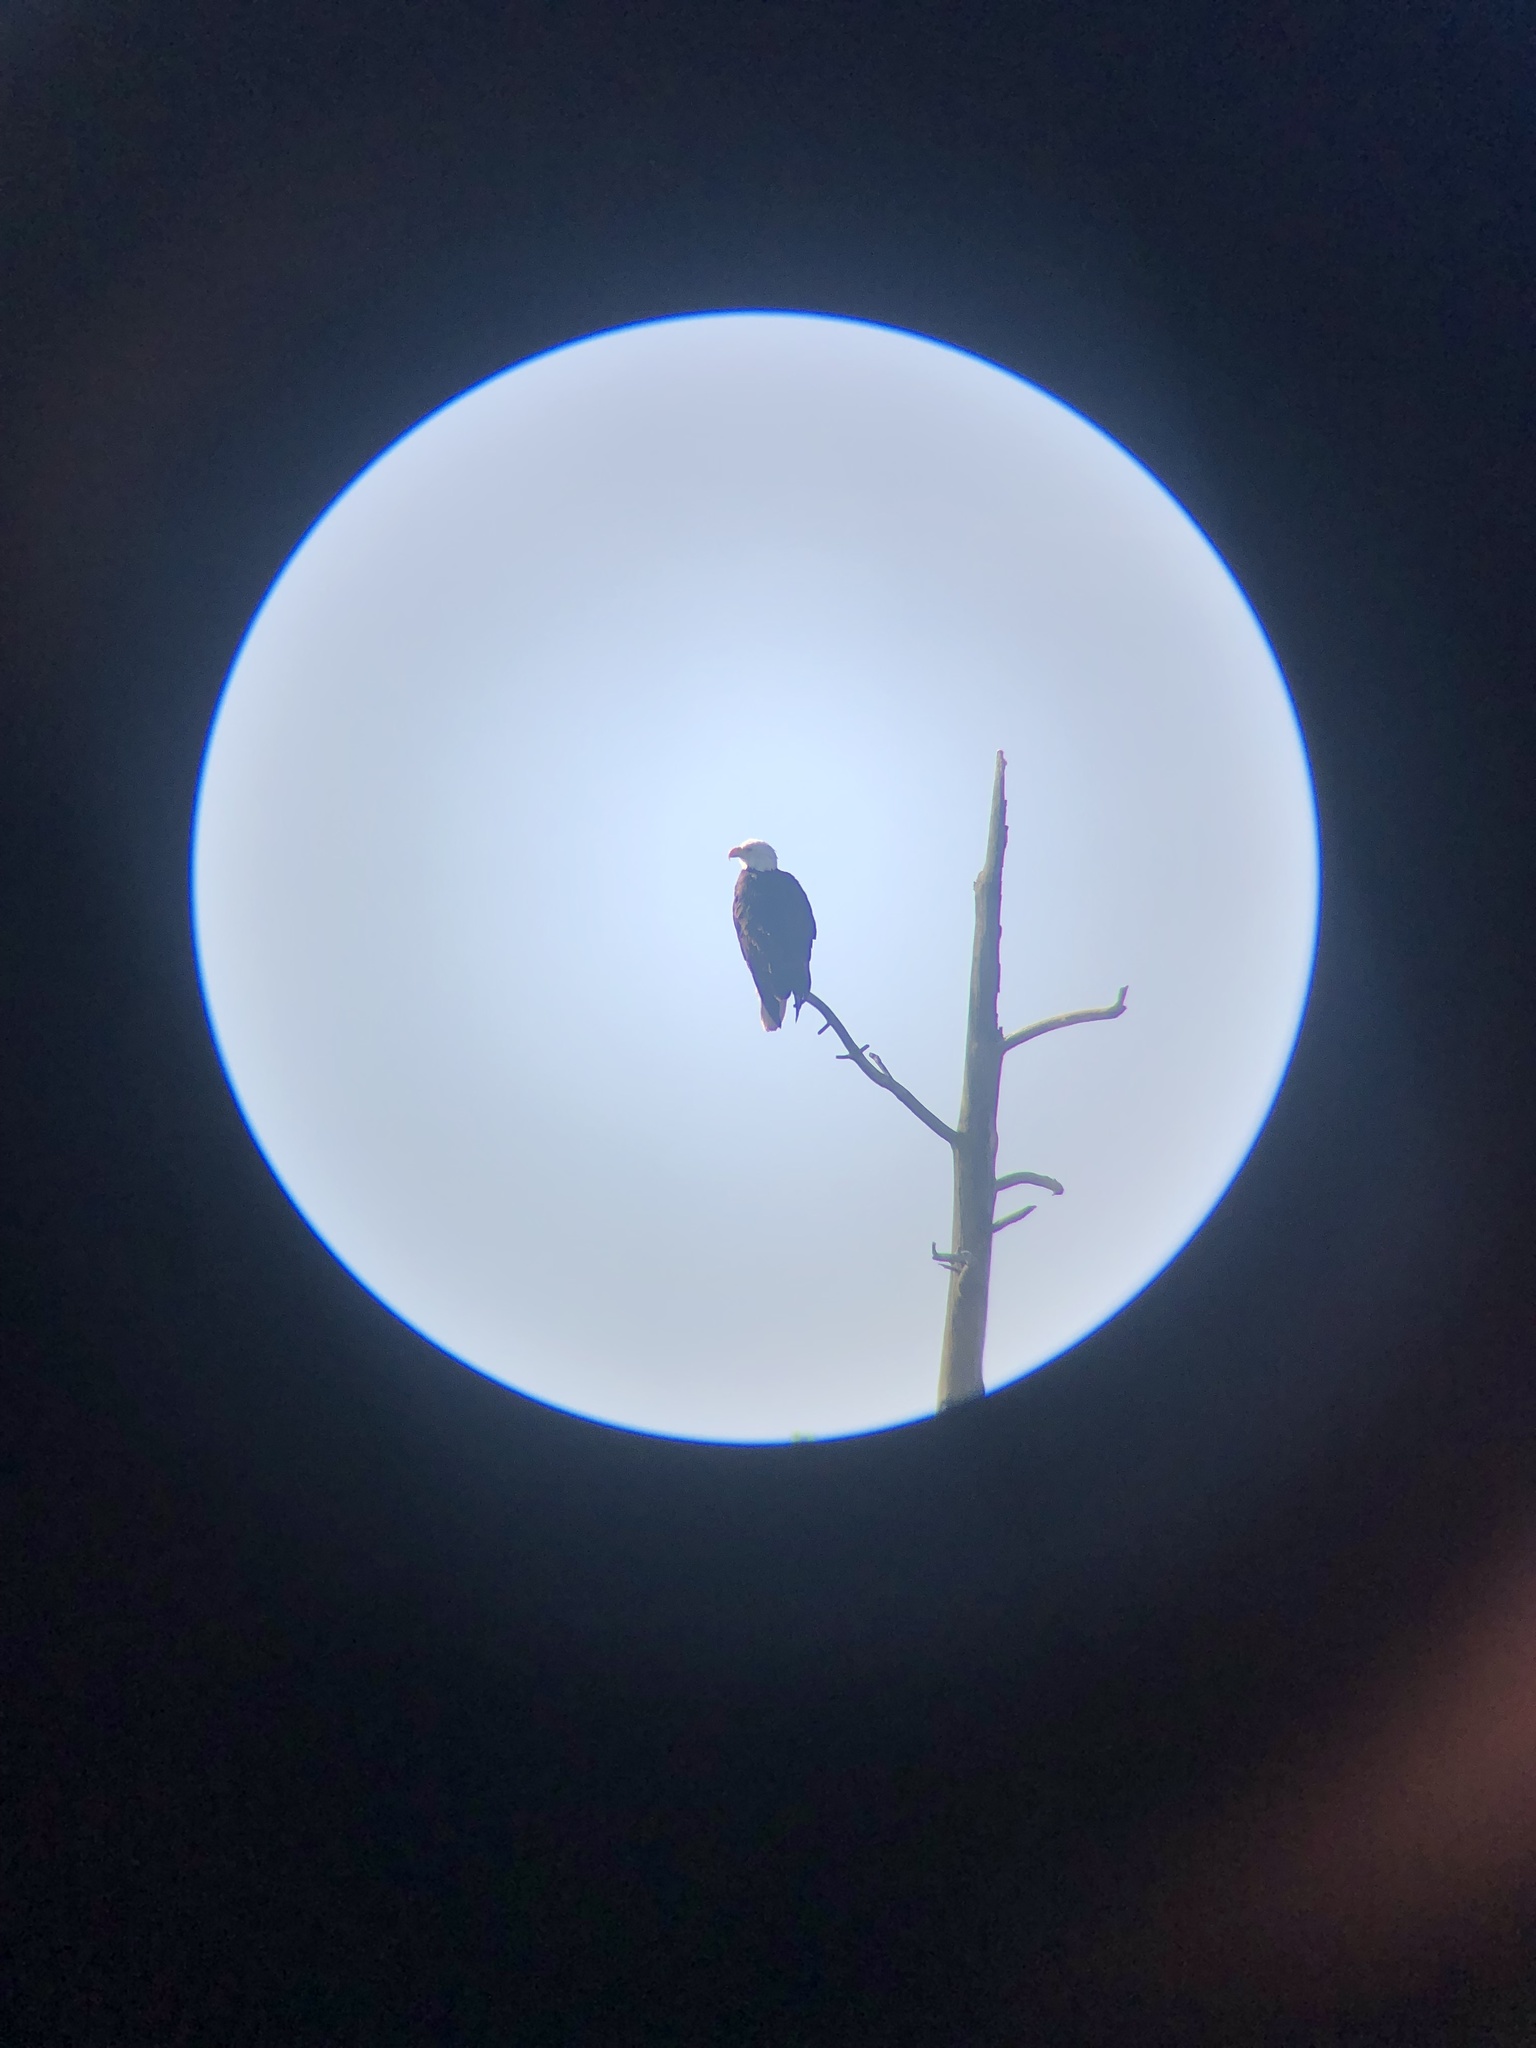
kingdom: Animalia
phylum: Chordata
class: Aves
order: Accipitriformes
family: Accipitridae
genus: Haliaeetus
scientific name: Haliaeetus leucocephalus
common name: Bald eagle
